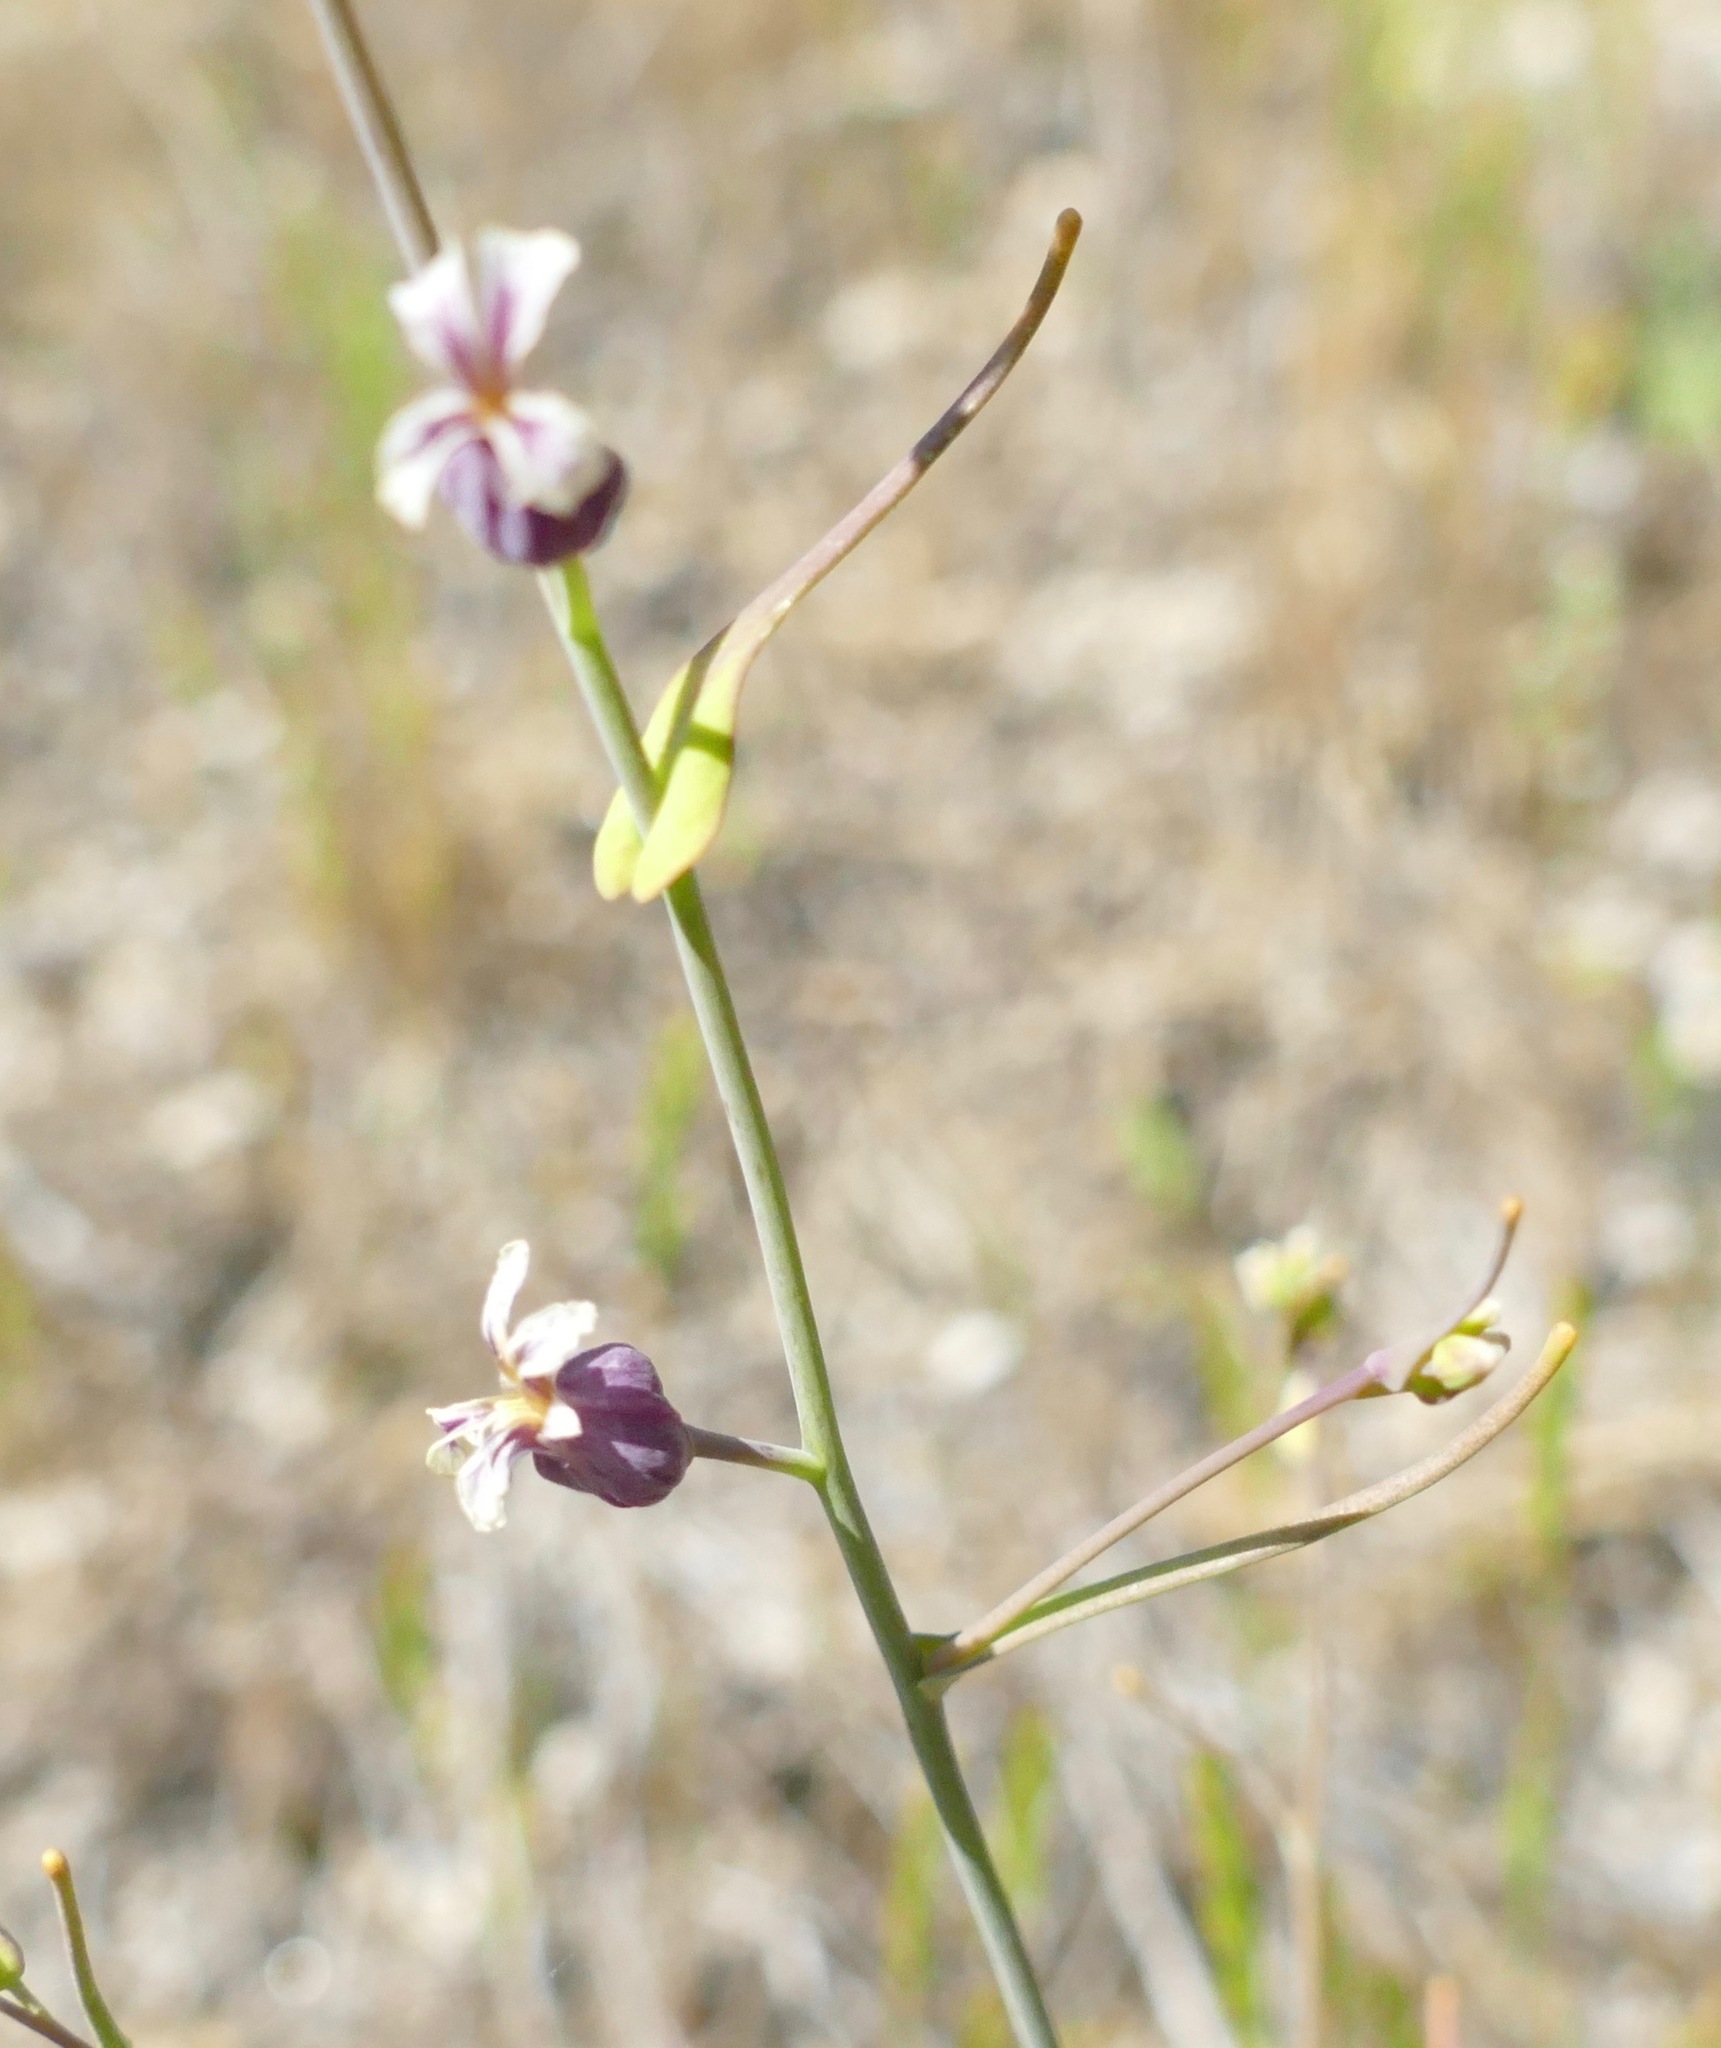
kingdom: Plantae
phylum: Tracheophyta
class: Magnoliopsida
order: Brassicales
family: Brassicaceae
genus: Streptanthus
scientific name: Streptanthus tortuosus
